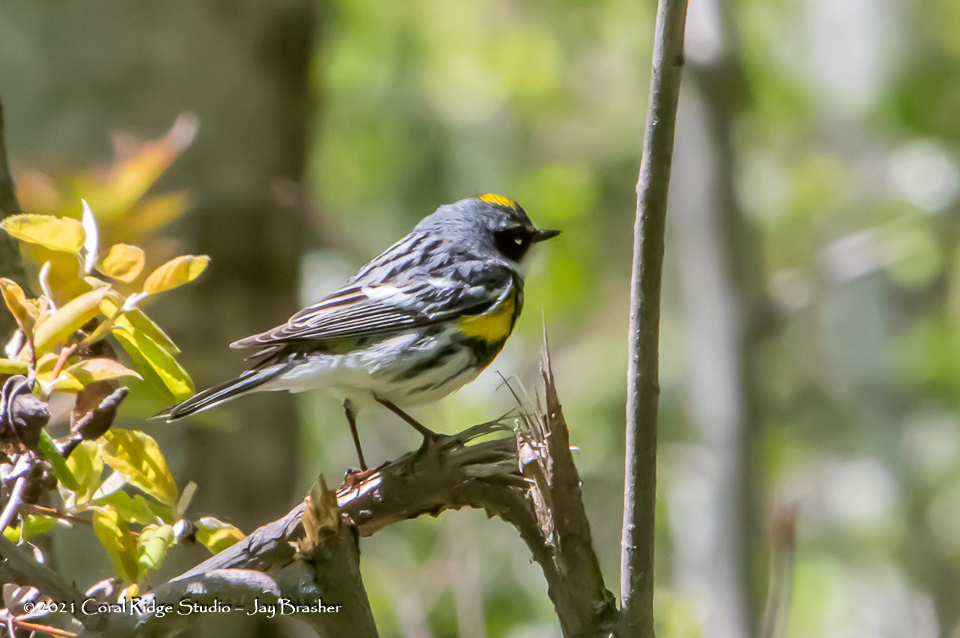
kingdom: Animalia
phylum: Chordata
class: Aves
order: Passeriformes
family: Parulidae
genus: Setophaga
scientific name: Setophaga coronata
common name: Myrtle warbler
